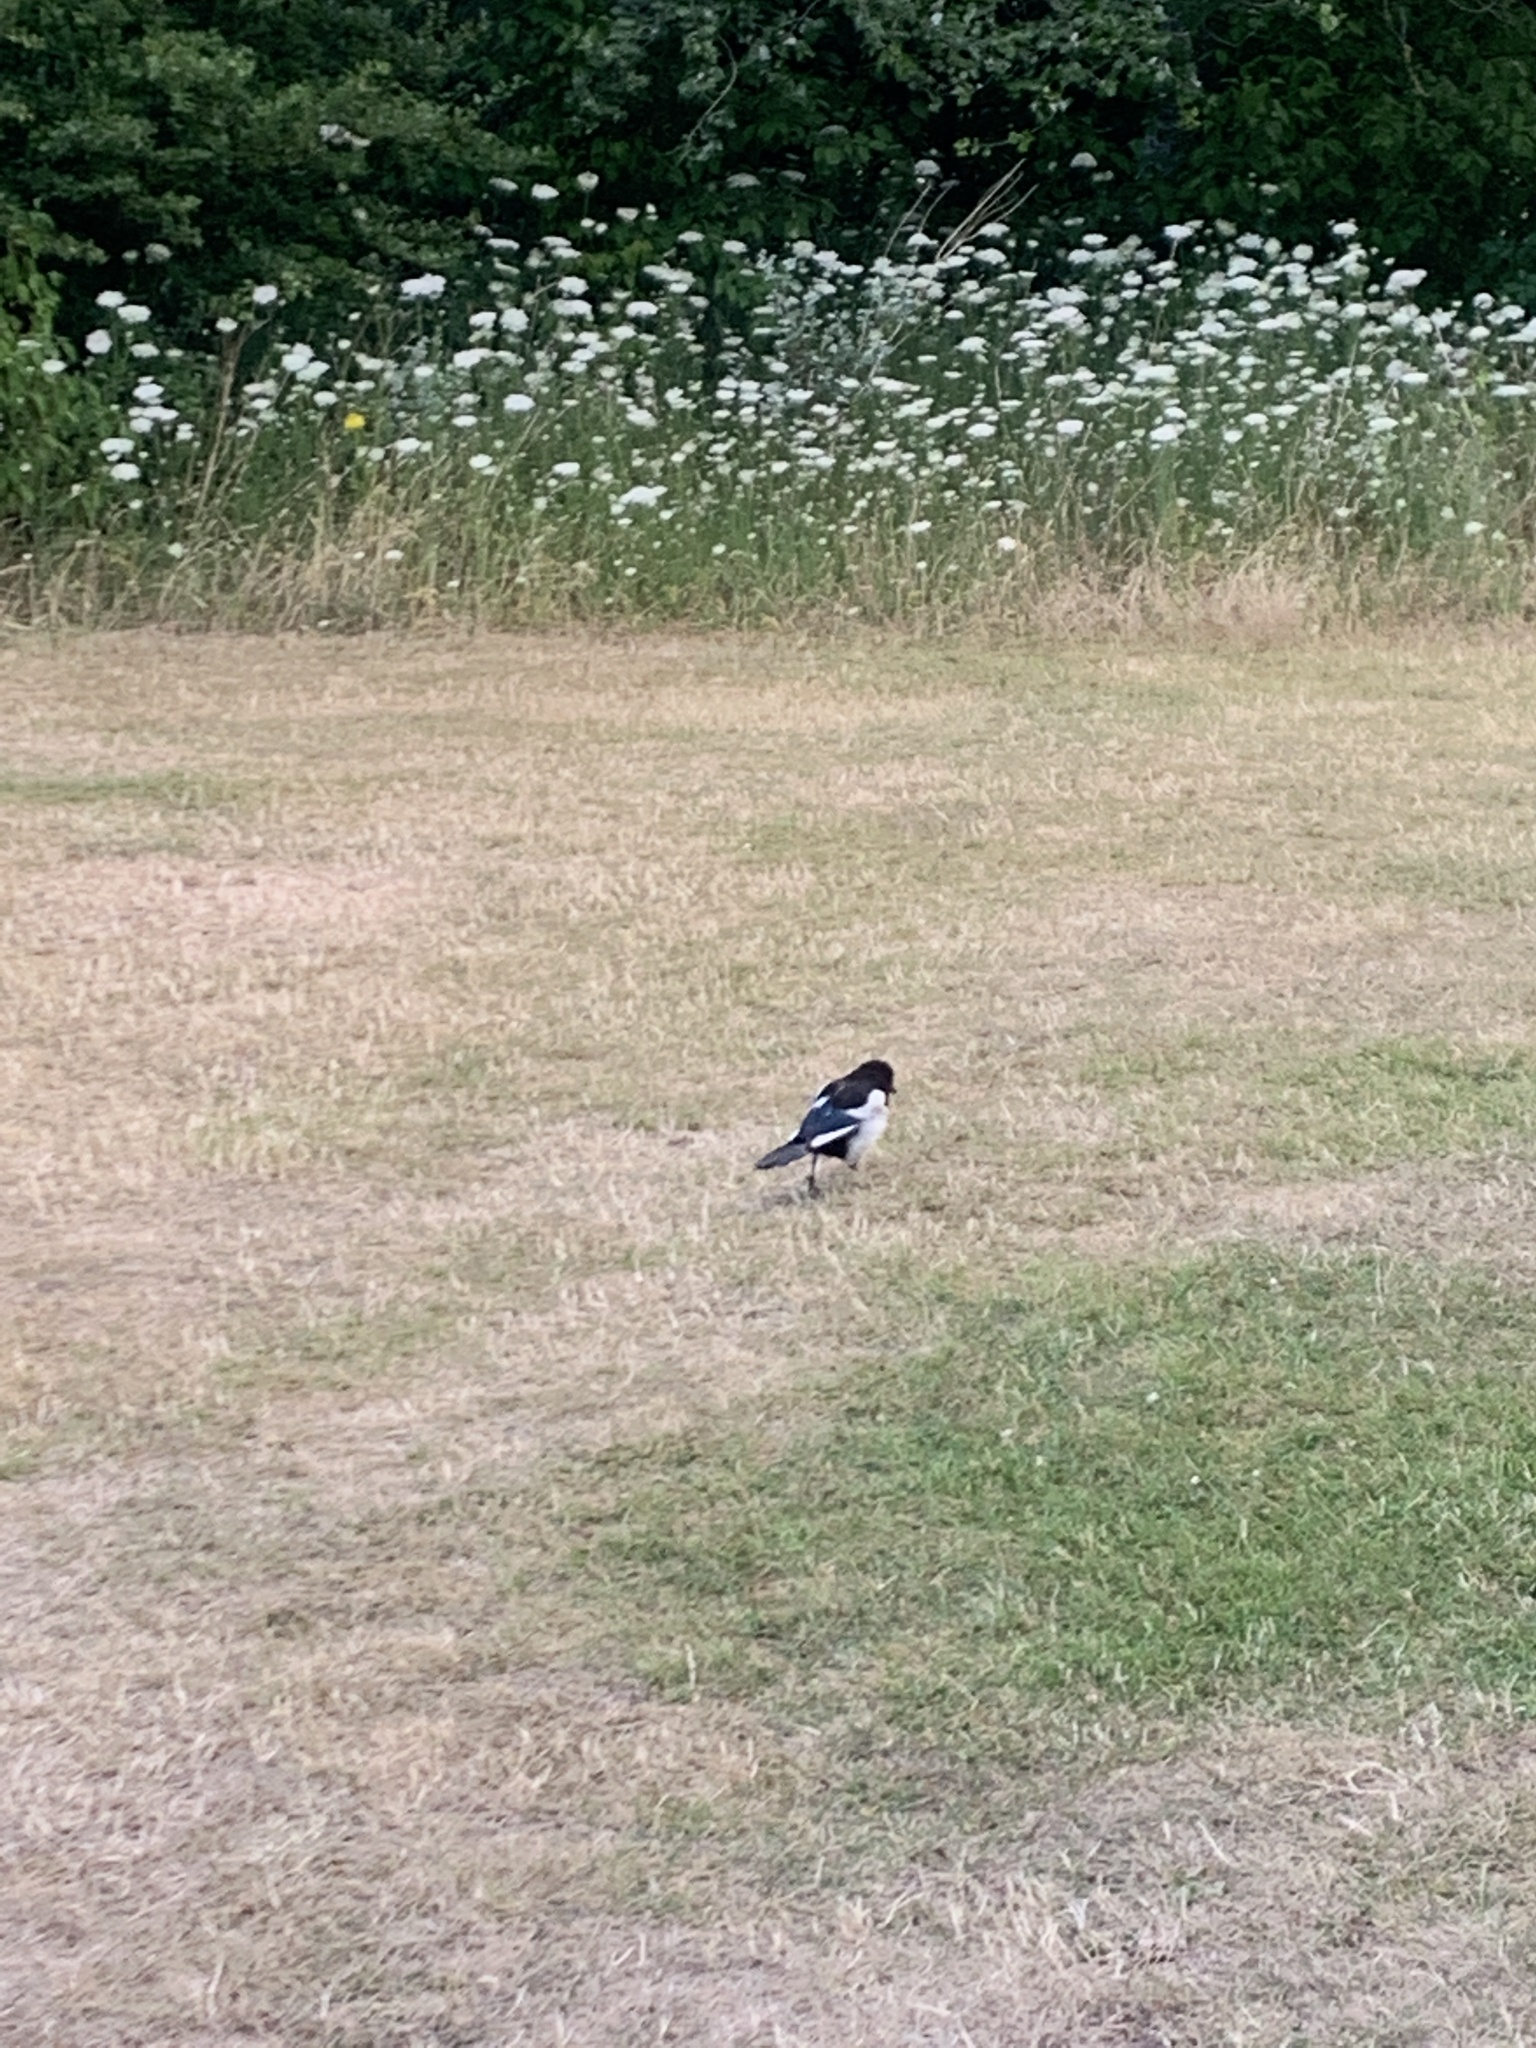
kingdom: Animalia
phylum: Chordata
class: Aves
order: Passeriformes
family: Corvidae
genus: Pica
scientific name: Pica pica
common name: Eurasian magpie
